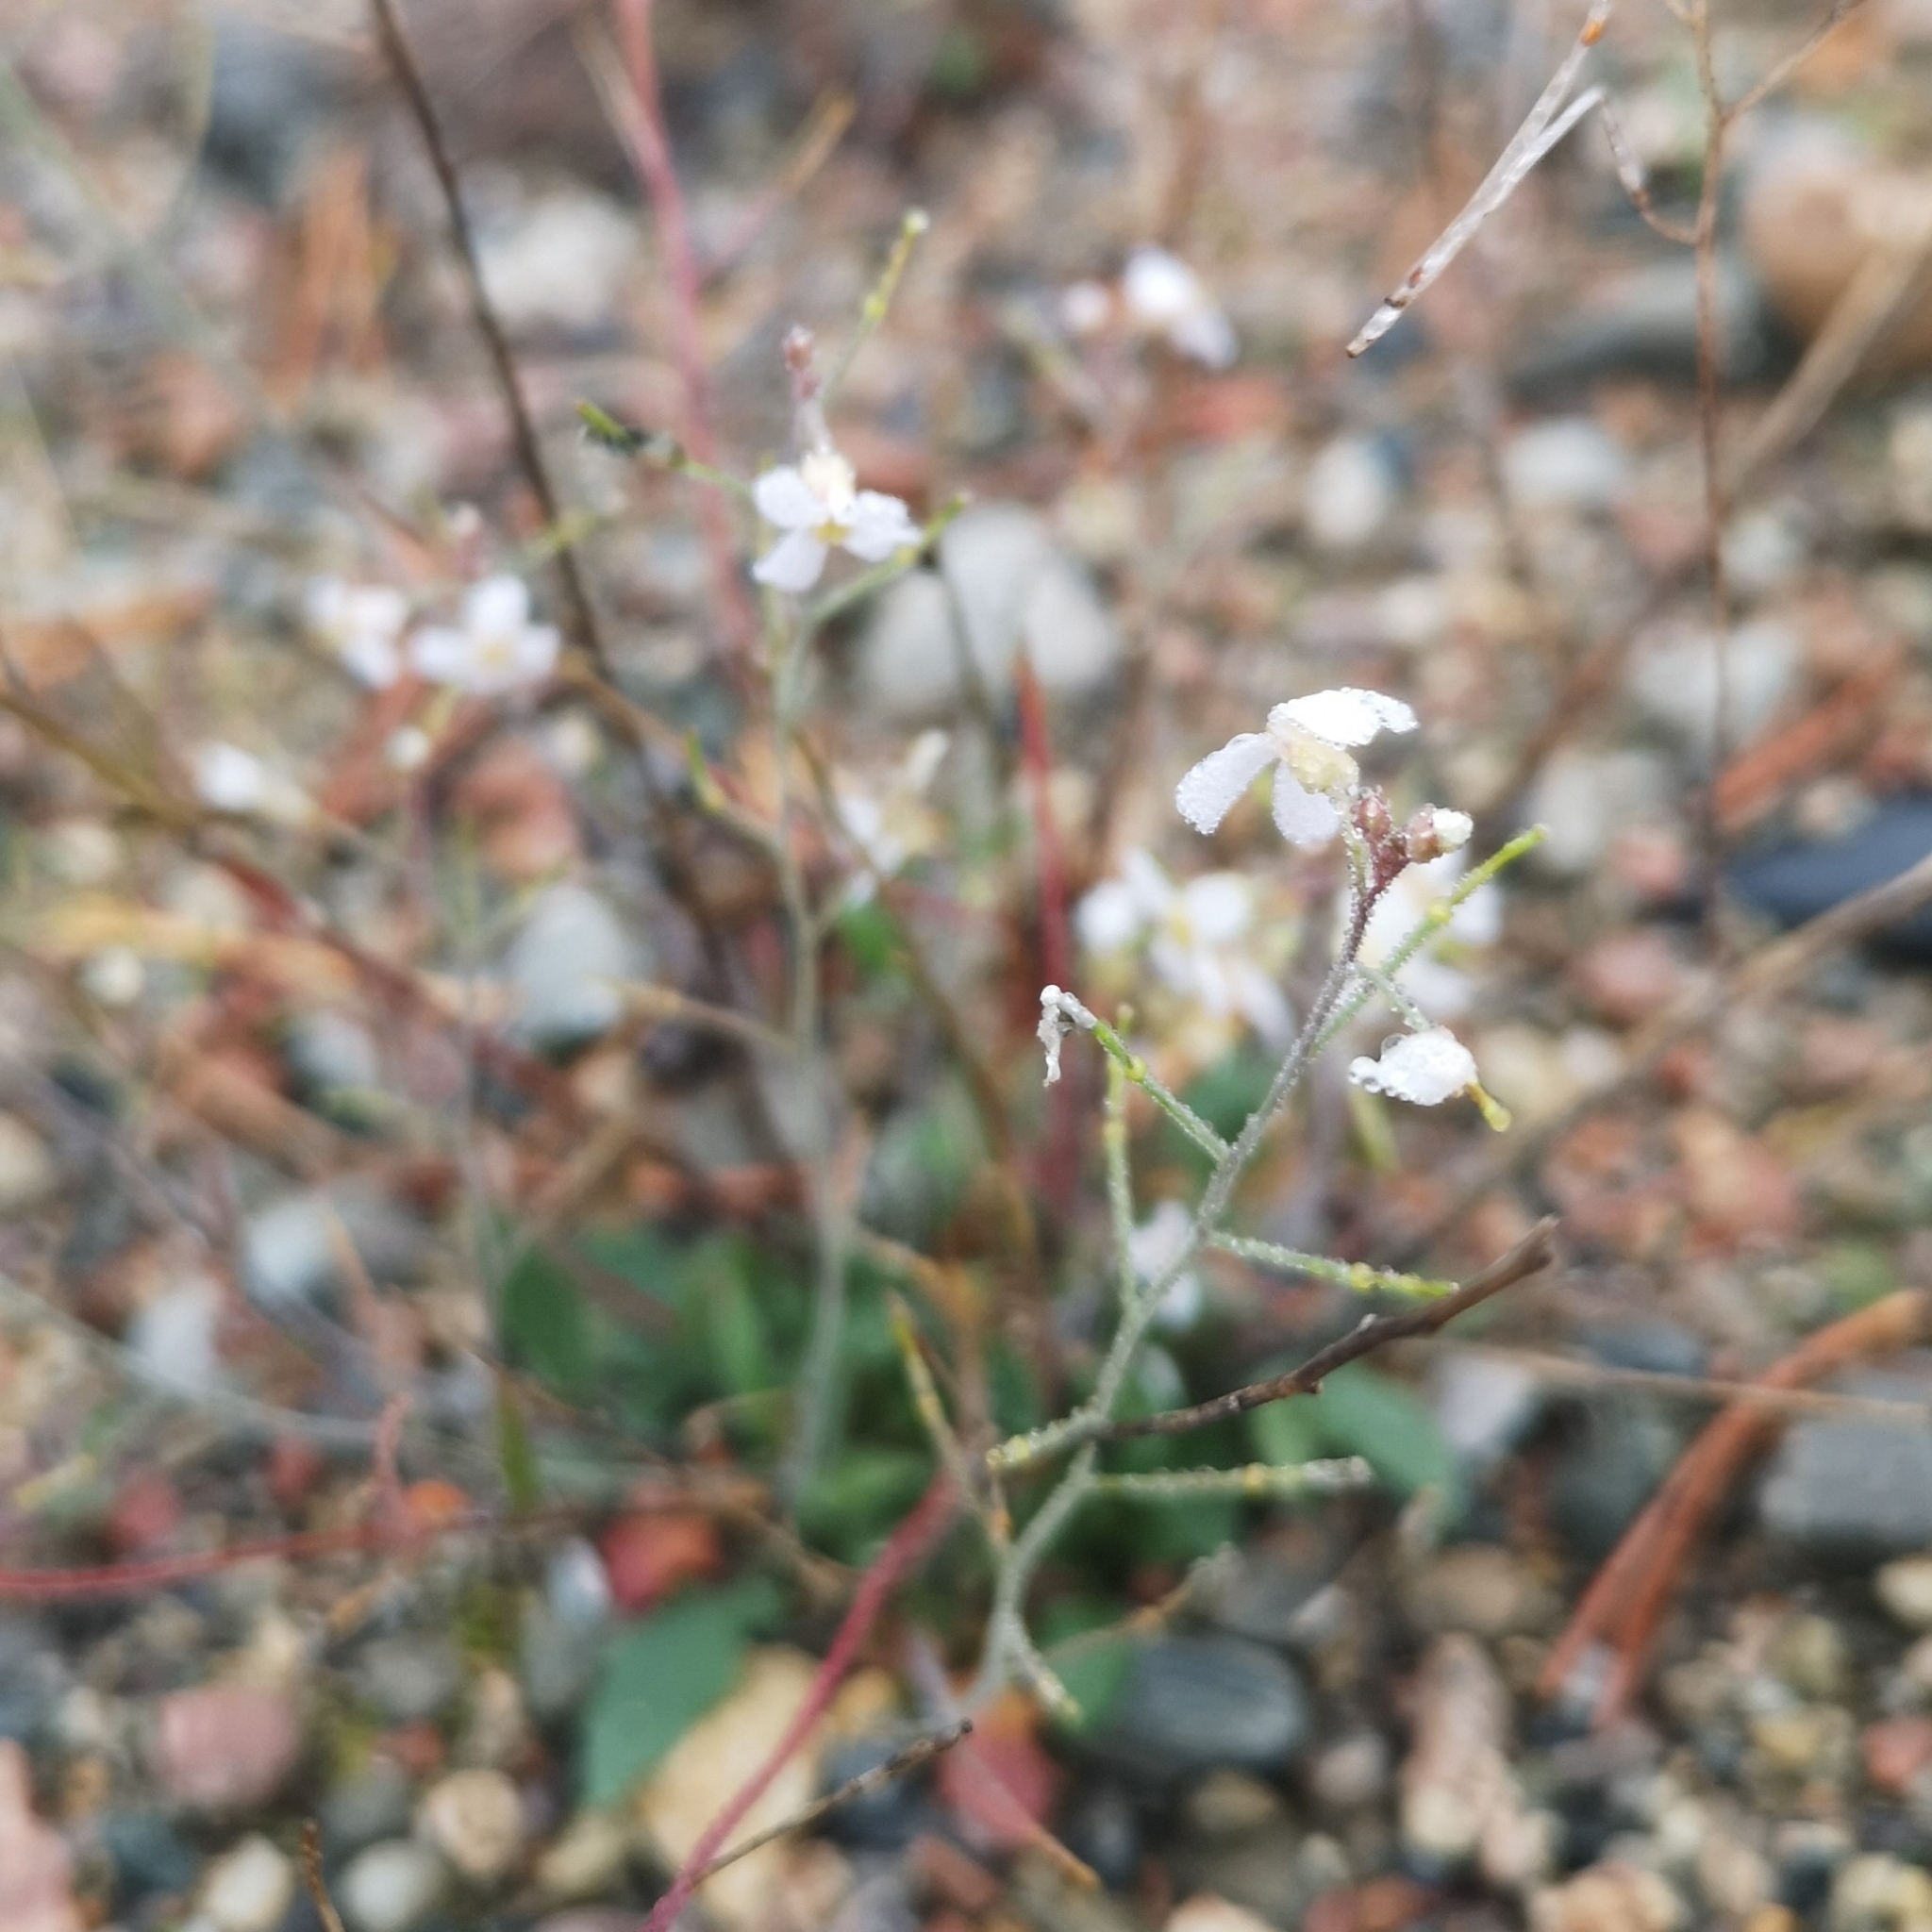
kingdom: Plantae
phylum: Tracheophyta
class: Magnoliopsida
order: Brassicales
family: Brassicaceae
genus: Arabidopsis
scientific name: Arabidopsis arenosa
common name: Sand rock-cress
